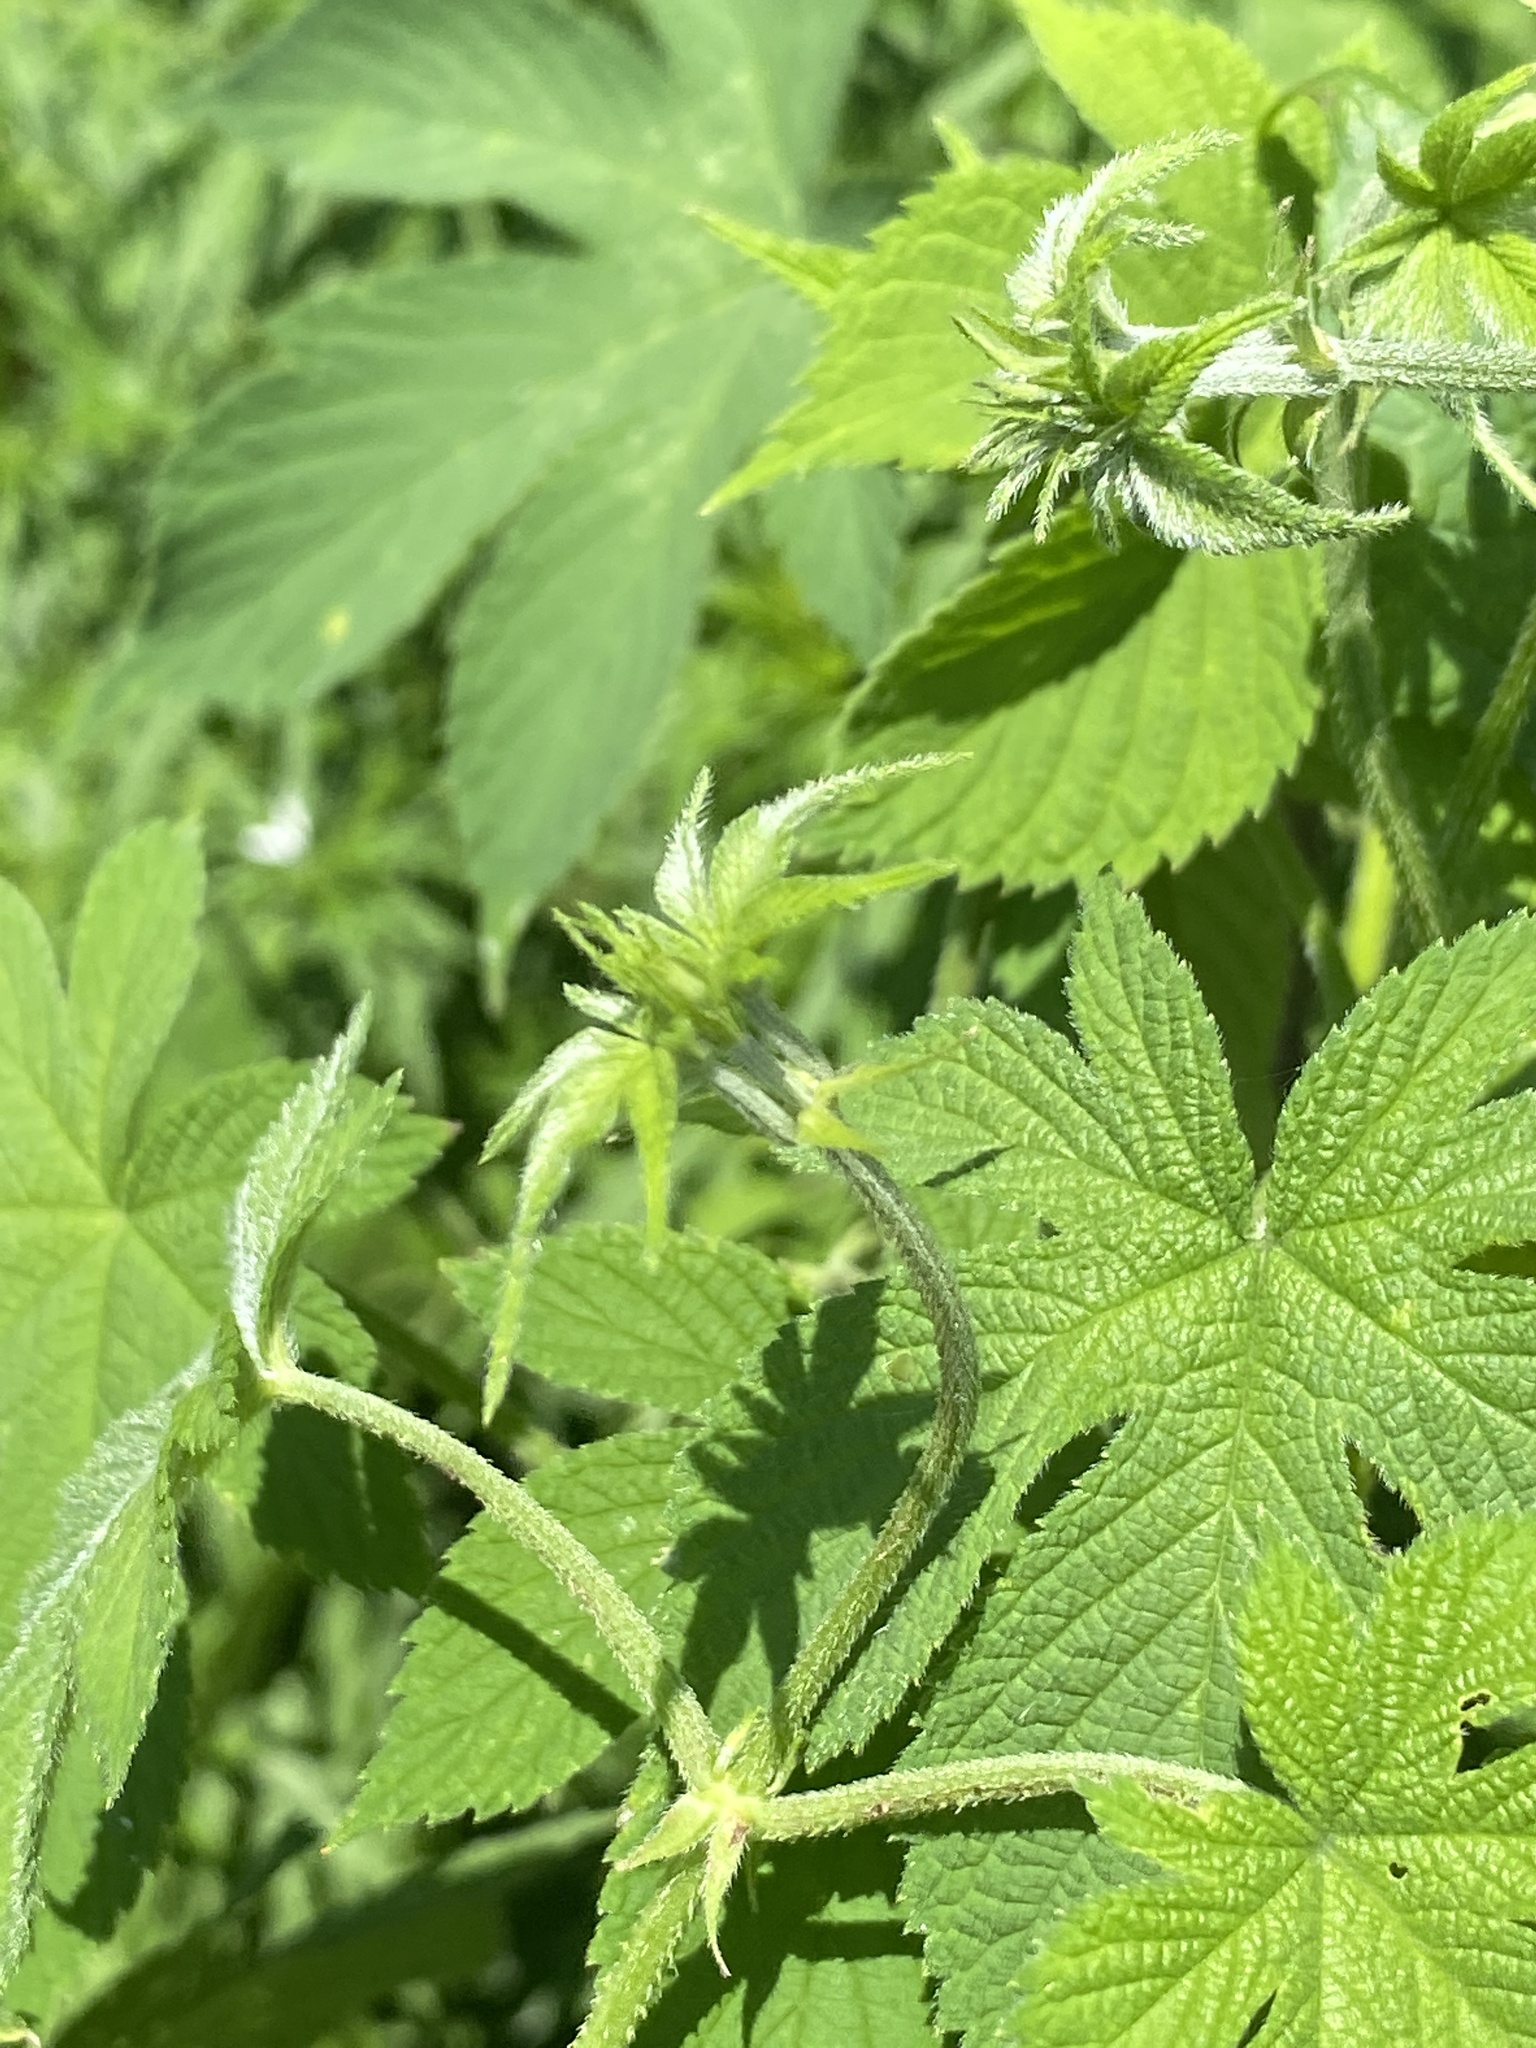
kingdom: Plantae
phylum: Tracheophyta
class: Magnoliopsida
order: Rosales
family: Cannabaceae
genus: Humulus
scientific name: Humulus scandens
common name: Japanese hop
